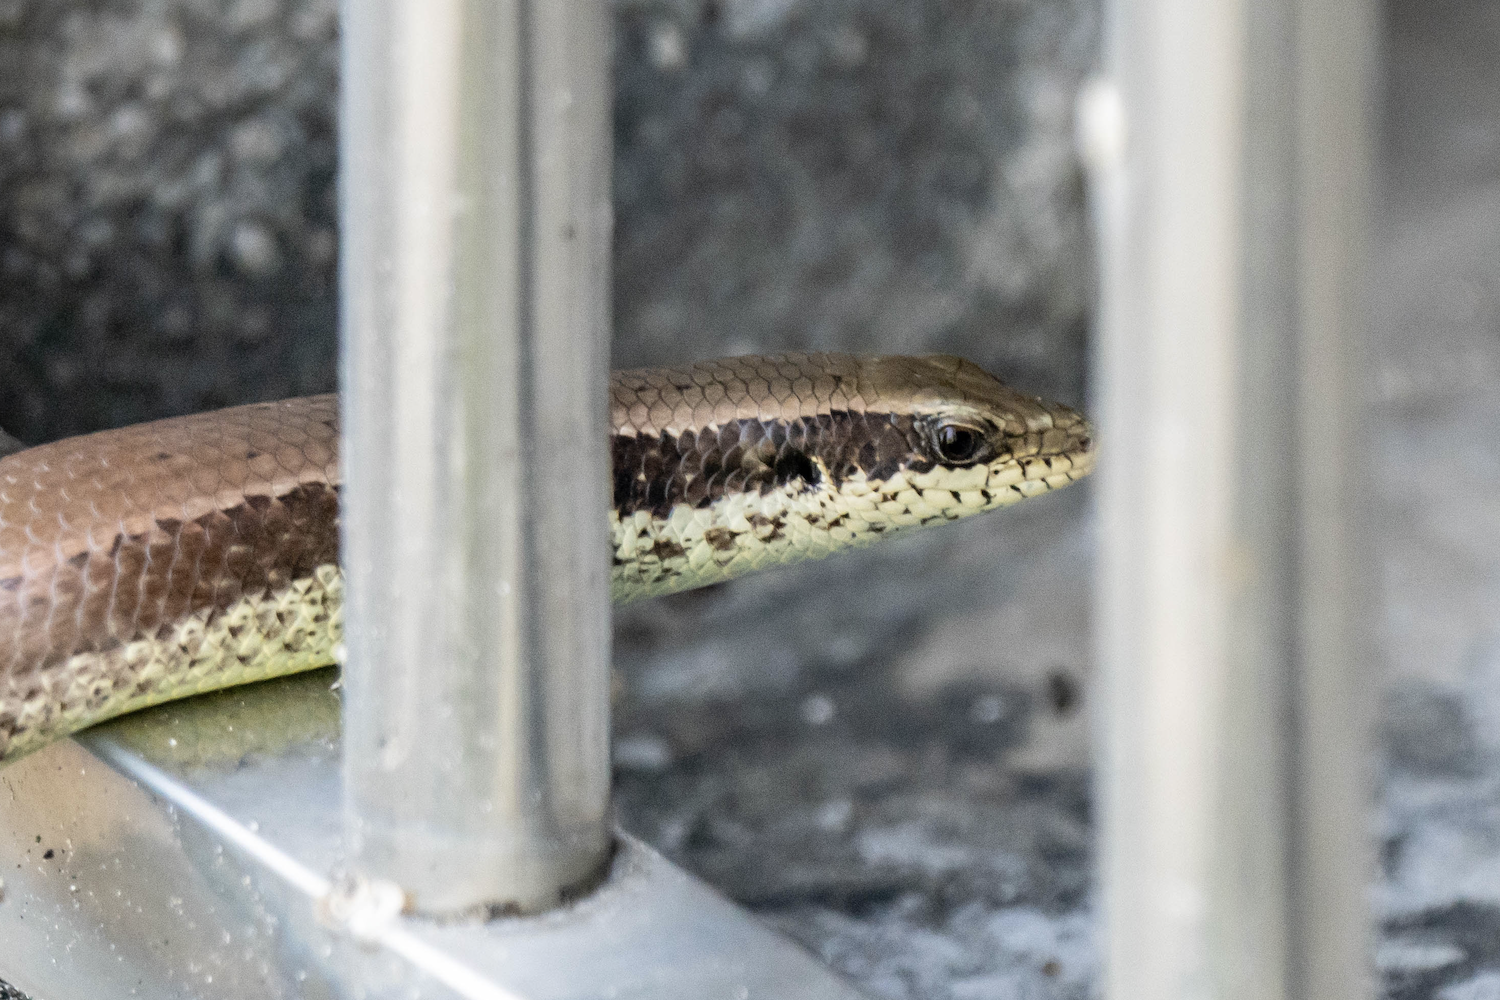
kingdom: Animalia
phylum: Chordata
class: Squamata
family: Scincidae
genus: Eutropis
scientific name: Eutropis longicaudata
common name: Long-tailed sun skink
